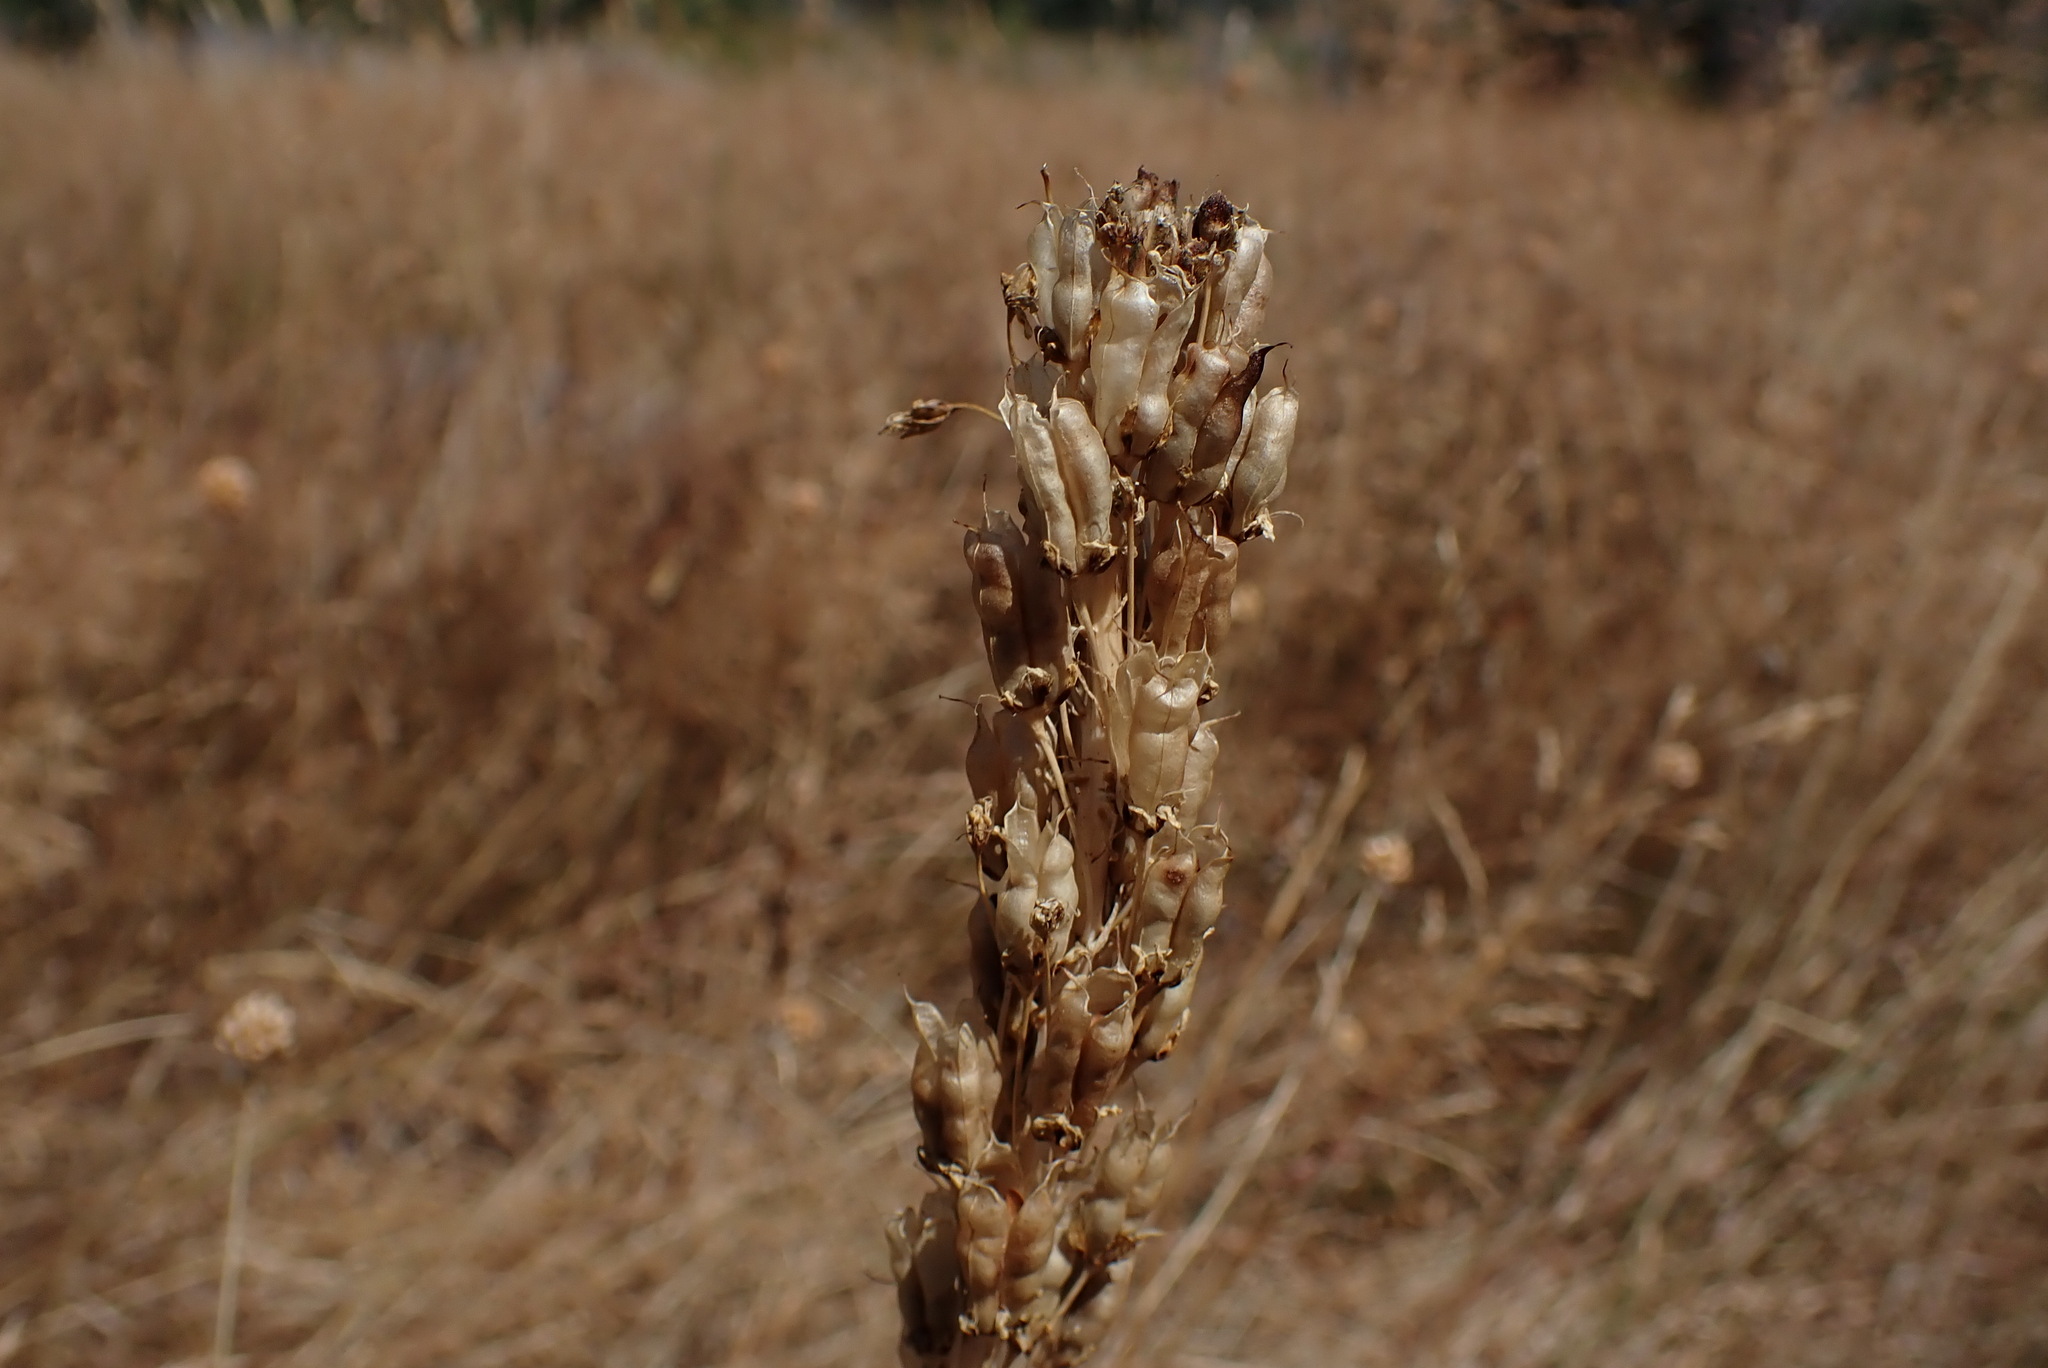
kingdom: Plantae
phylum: Tracheophyta
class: Liliopsida
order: Liliales
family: Melanthiaceae
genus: Toxicoscordion
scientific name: Toxicoscordion venenosum
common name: Meadow death camas
